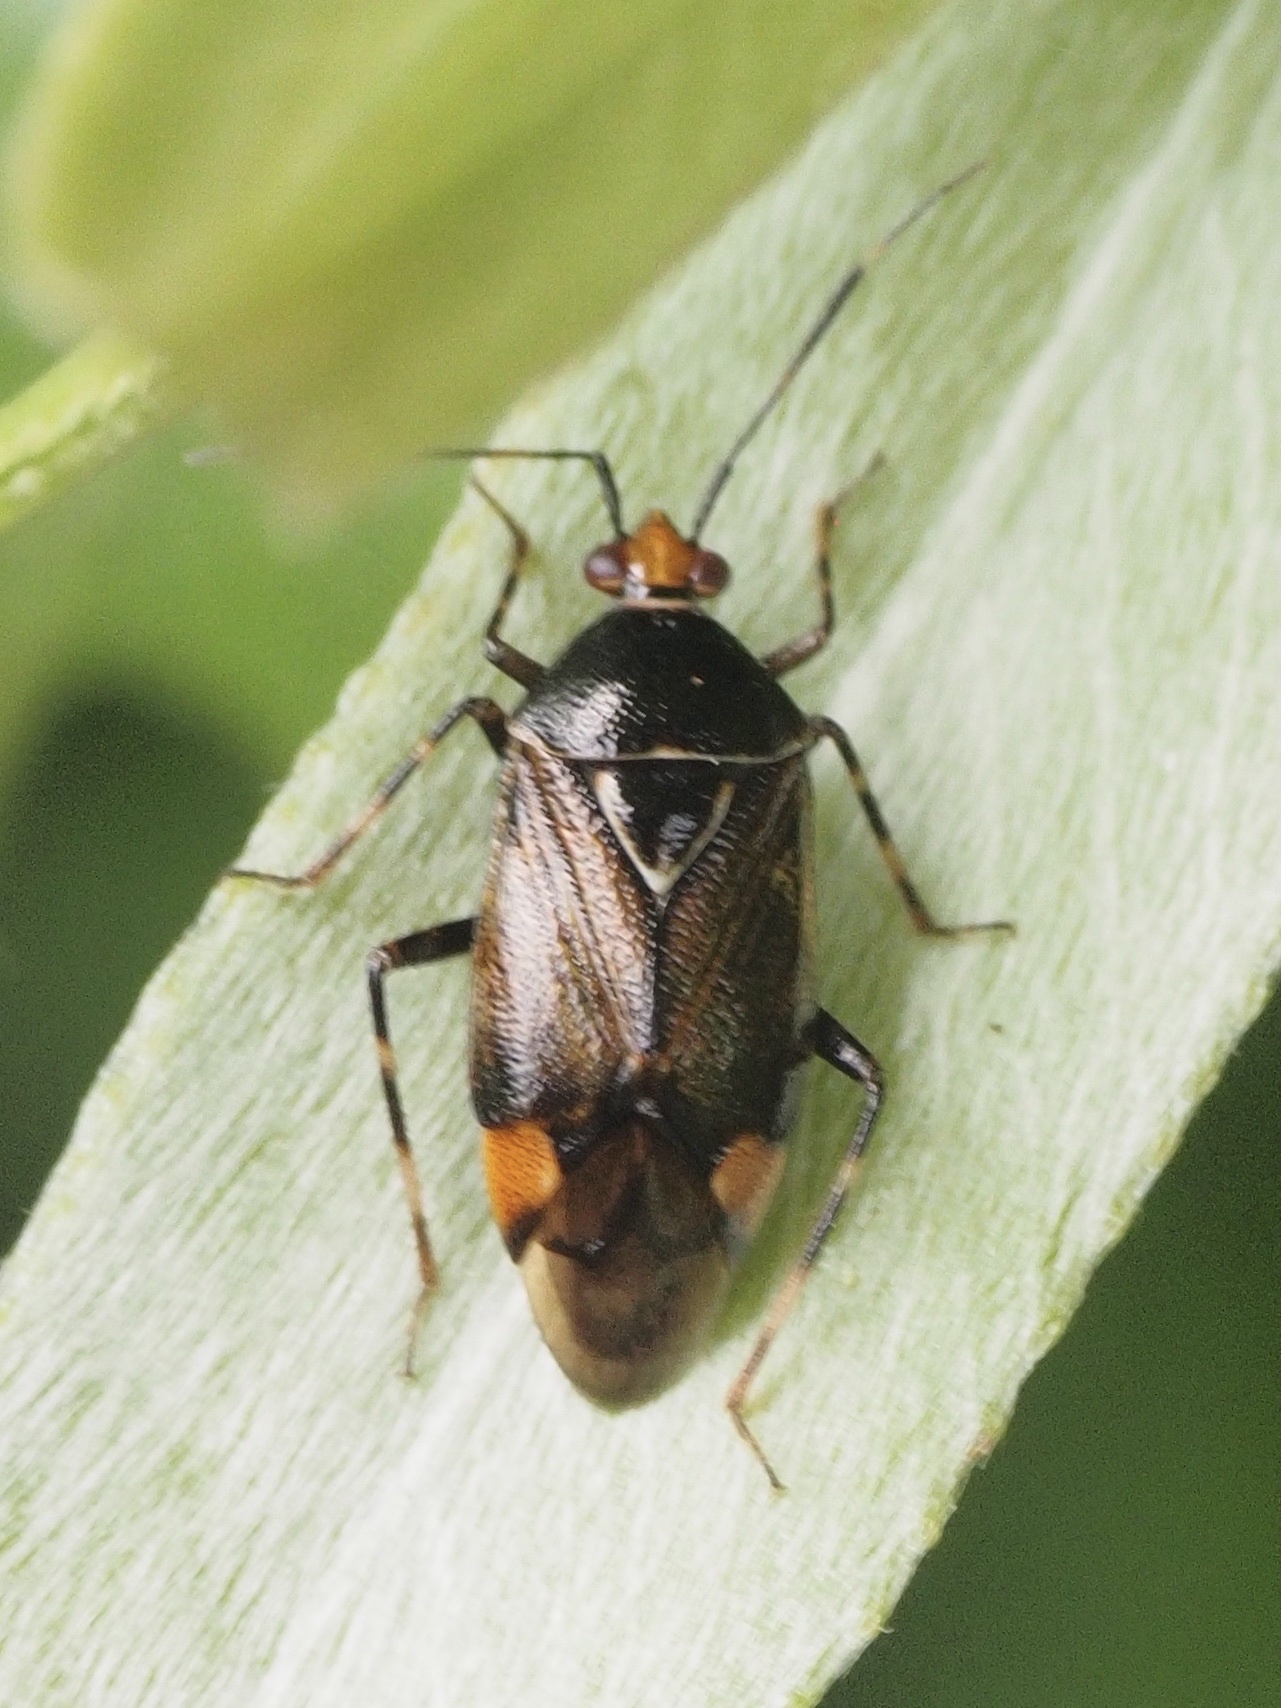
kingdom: Animalia
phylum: Arthropoda
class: Insecta
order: Hemiptera
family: Miridae
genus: Deraeocoris
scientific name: Deraeocoris flavilinea
